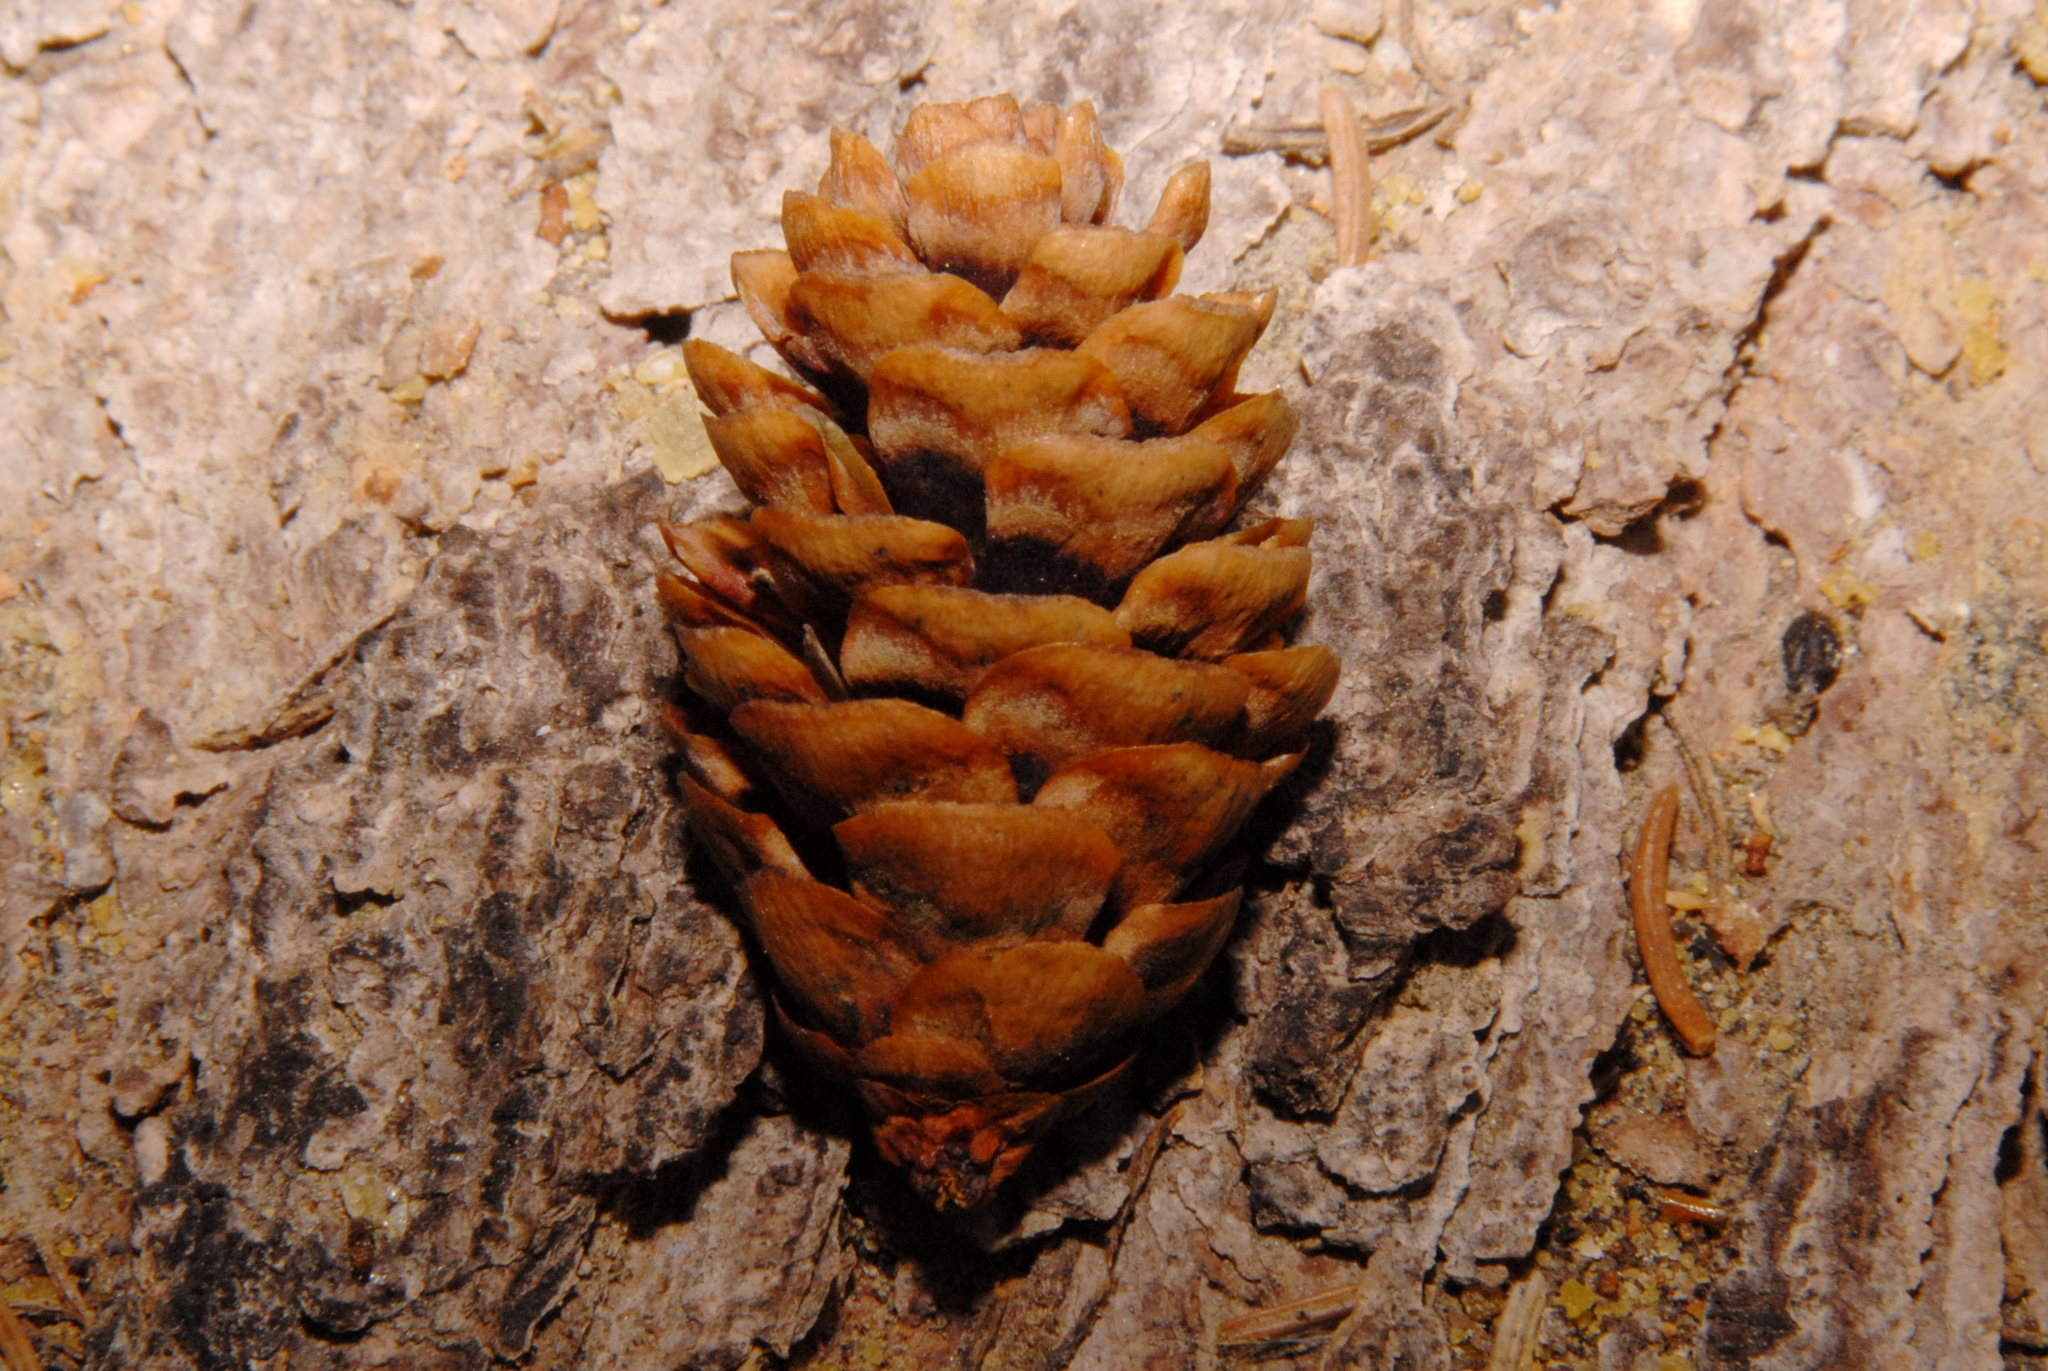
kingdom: Plantae
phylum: Tracheophyta
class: Pinopsida
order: Pinales
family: Pinaceae
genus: Picea
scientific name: Picea glauca
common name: White spruce
